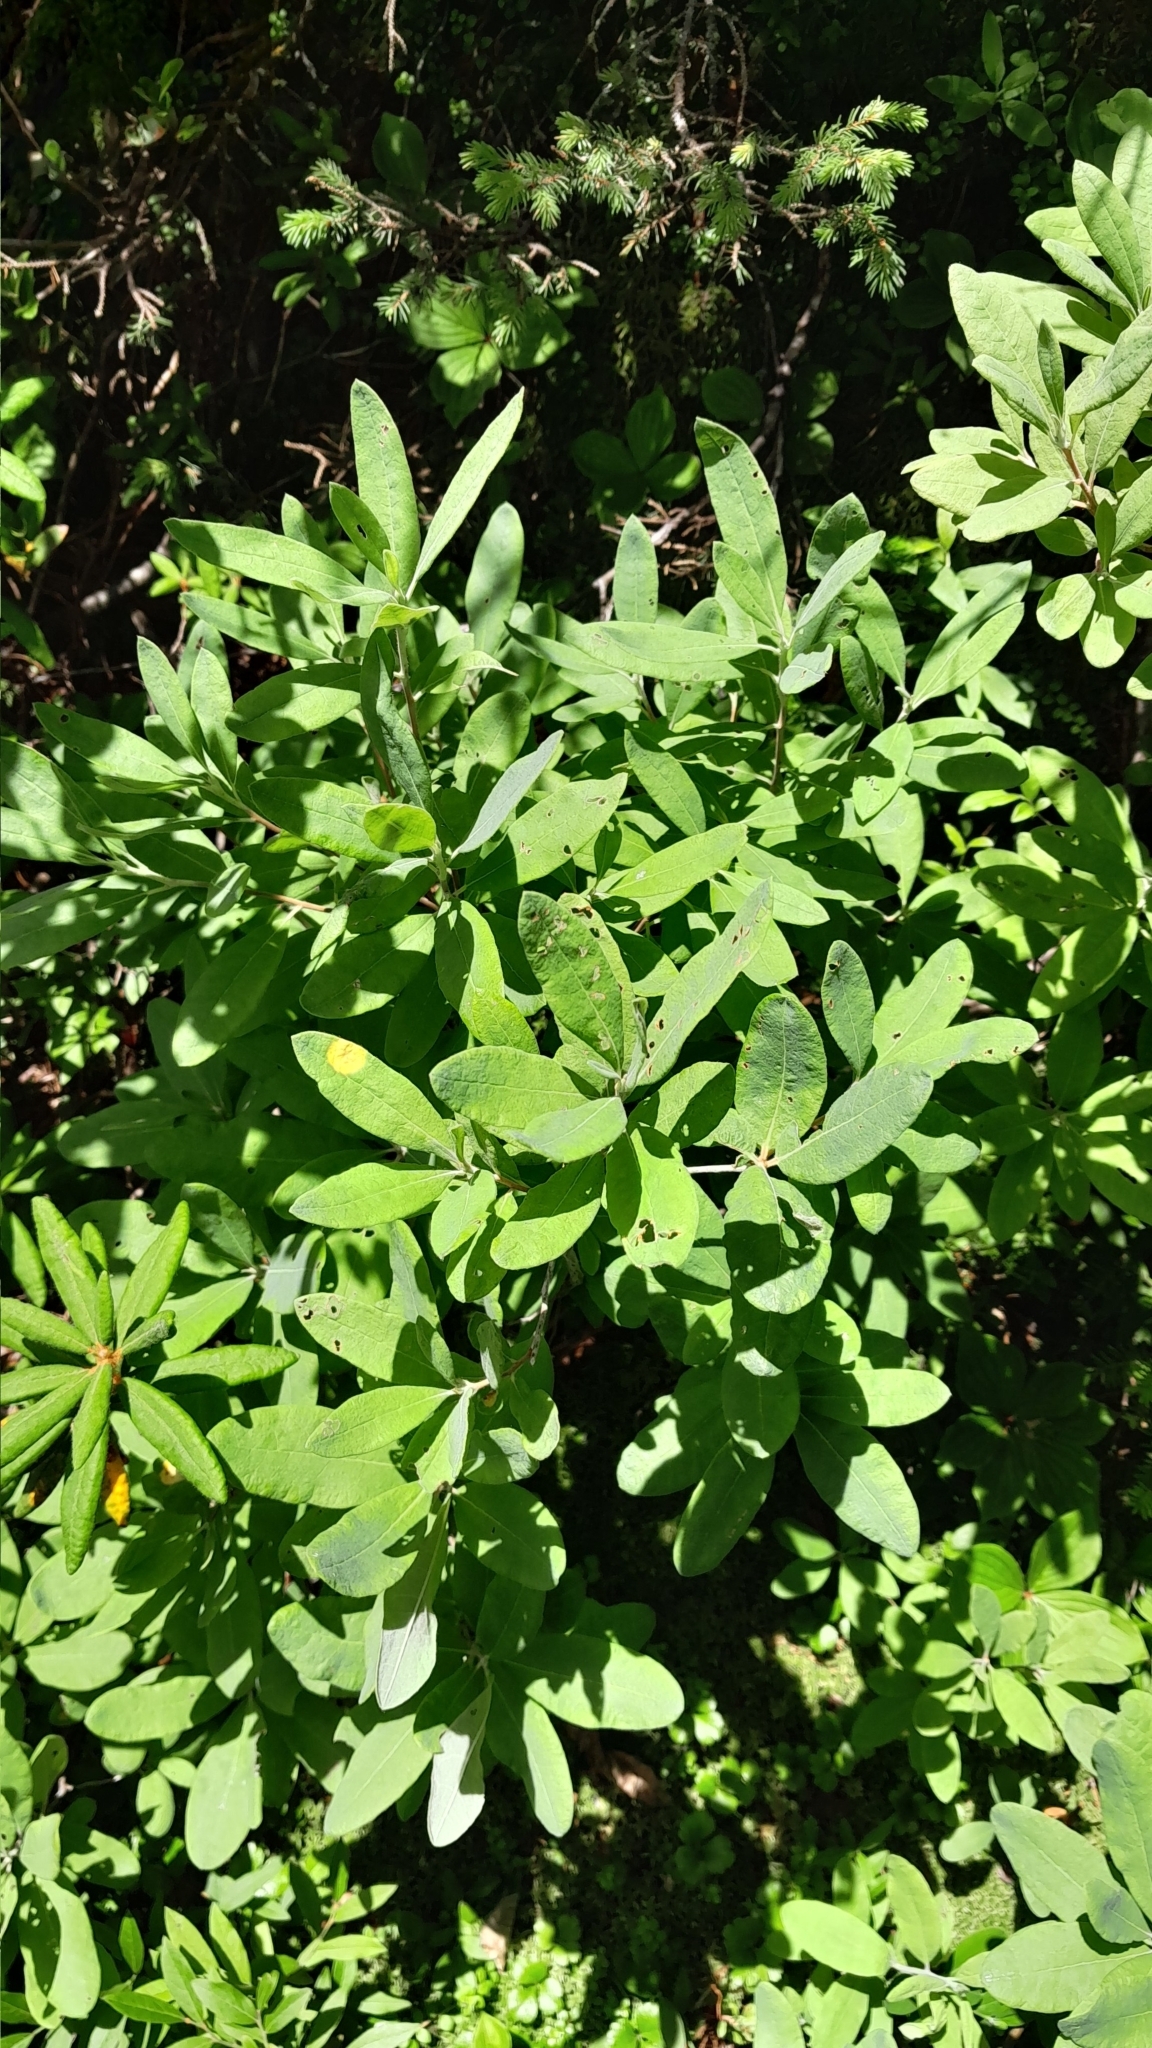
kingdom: Plantae
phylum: Tracheophyta
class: Magnoliopsida
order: Ericales
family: Ericaceae
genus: Rhododendron
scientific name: Rhododendron canadense
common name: Rhodora
